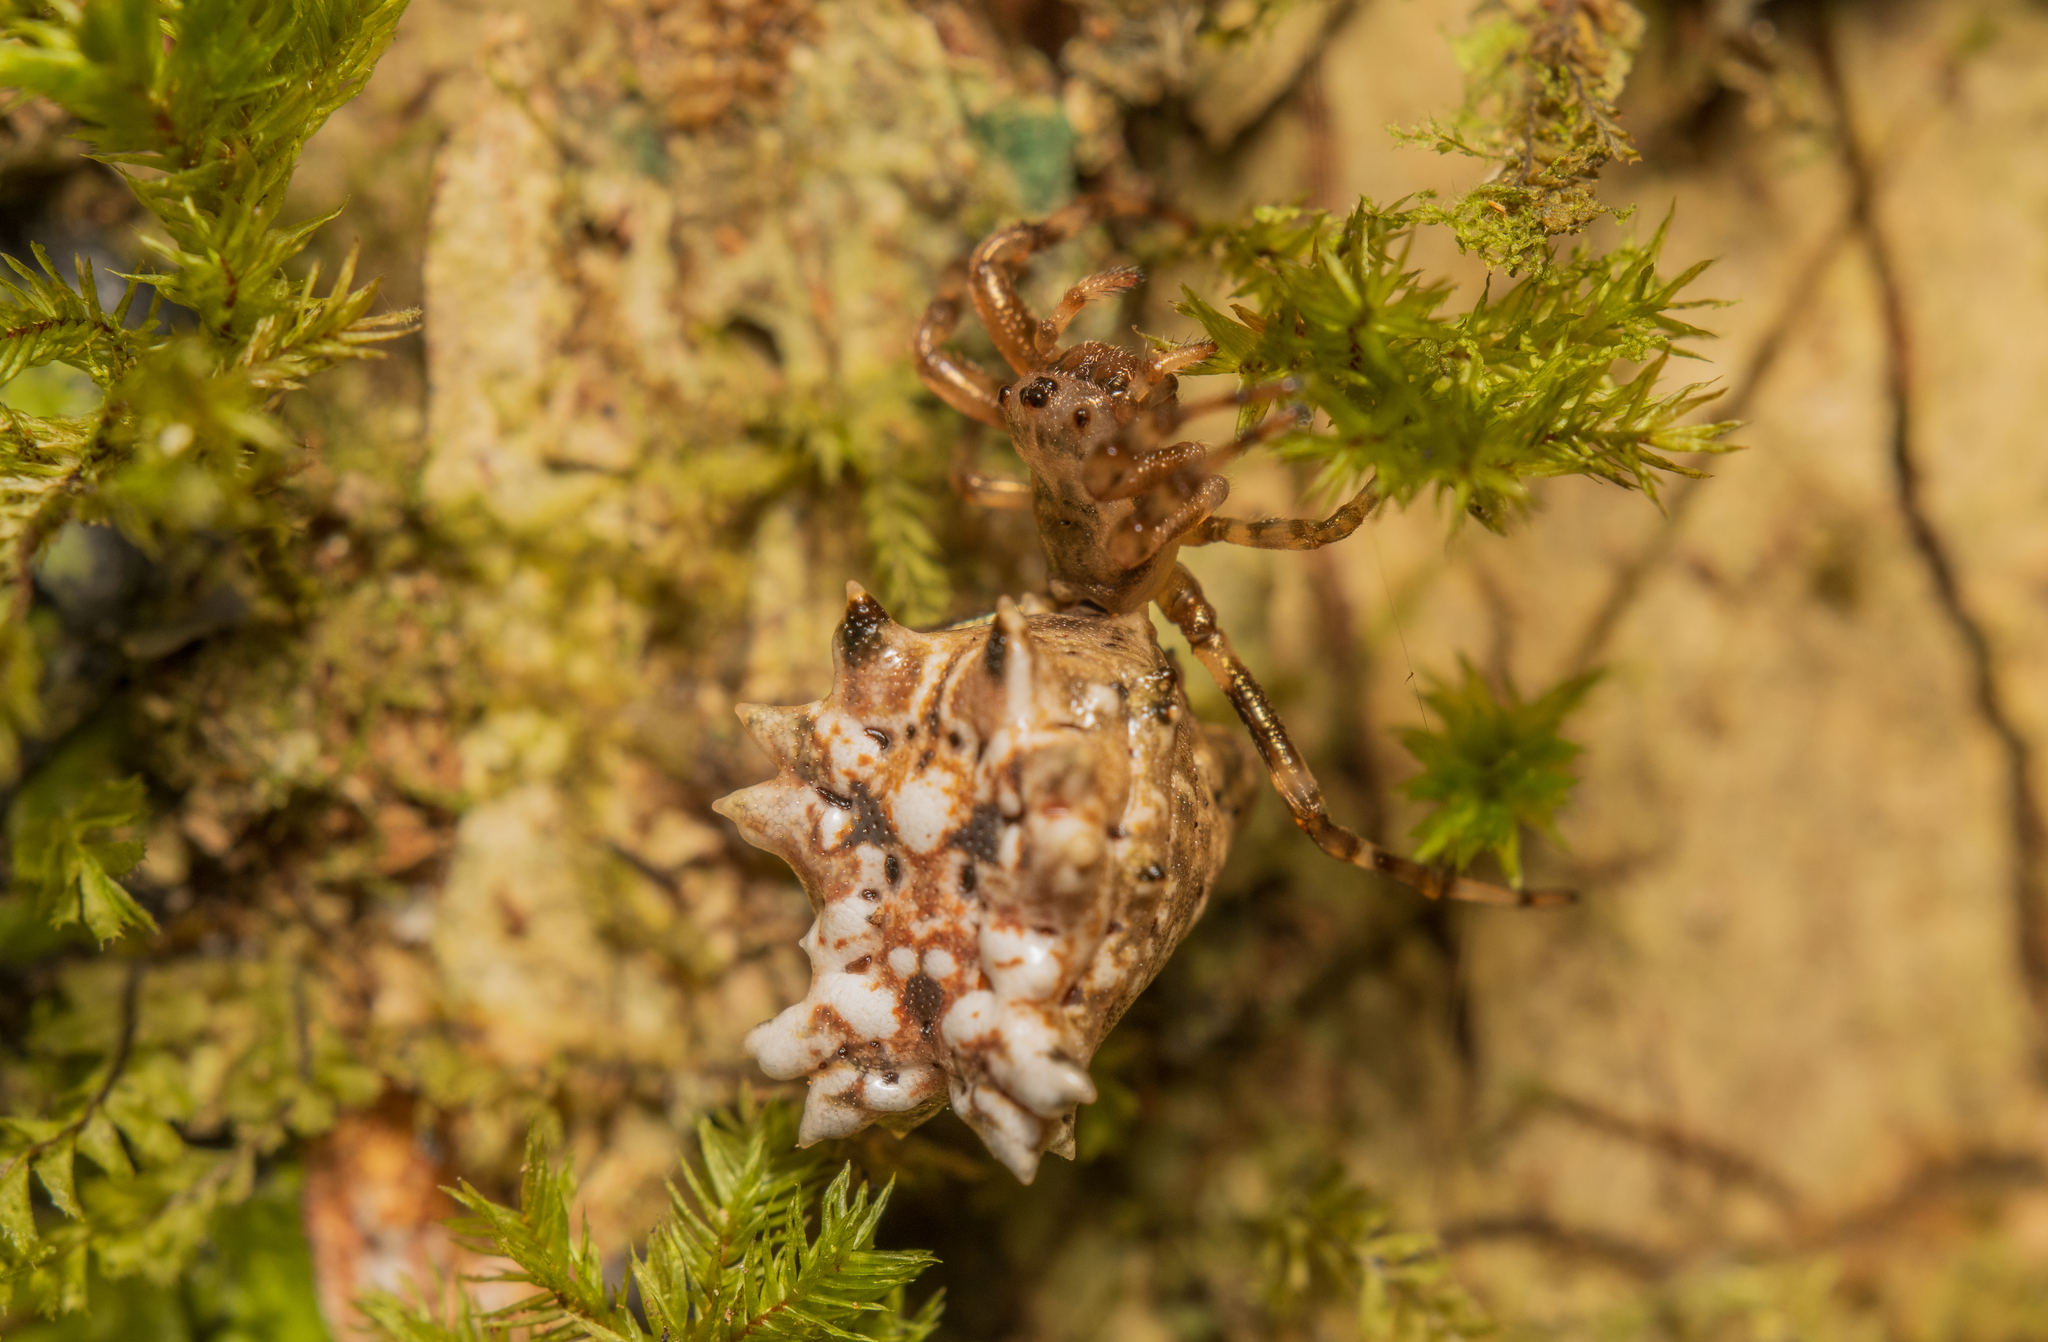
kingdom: Animalia
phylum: Arthropoda
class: Arachnida
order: Araneae
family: Araneidae
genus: Micrathena
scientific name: Micrathena horrida
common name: Orb weavers
